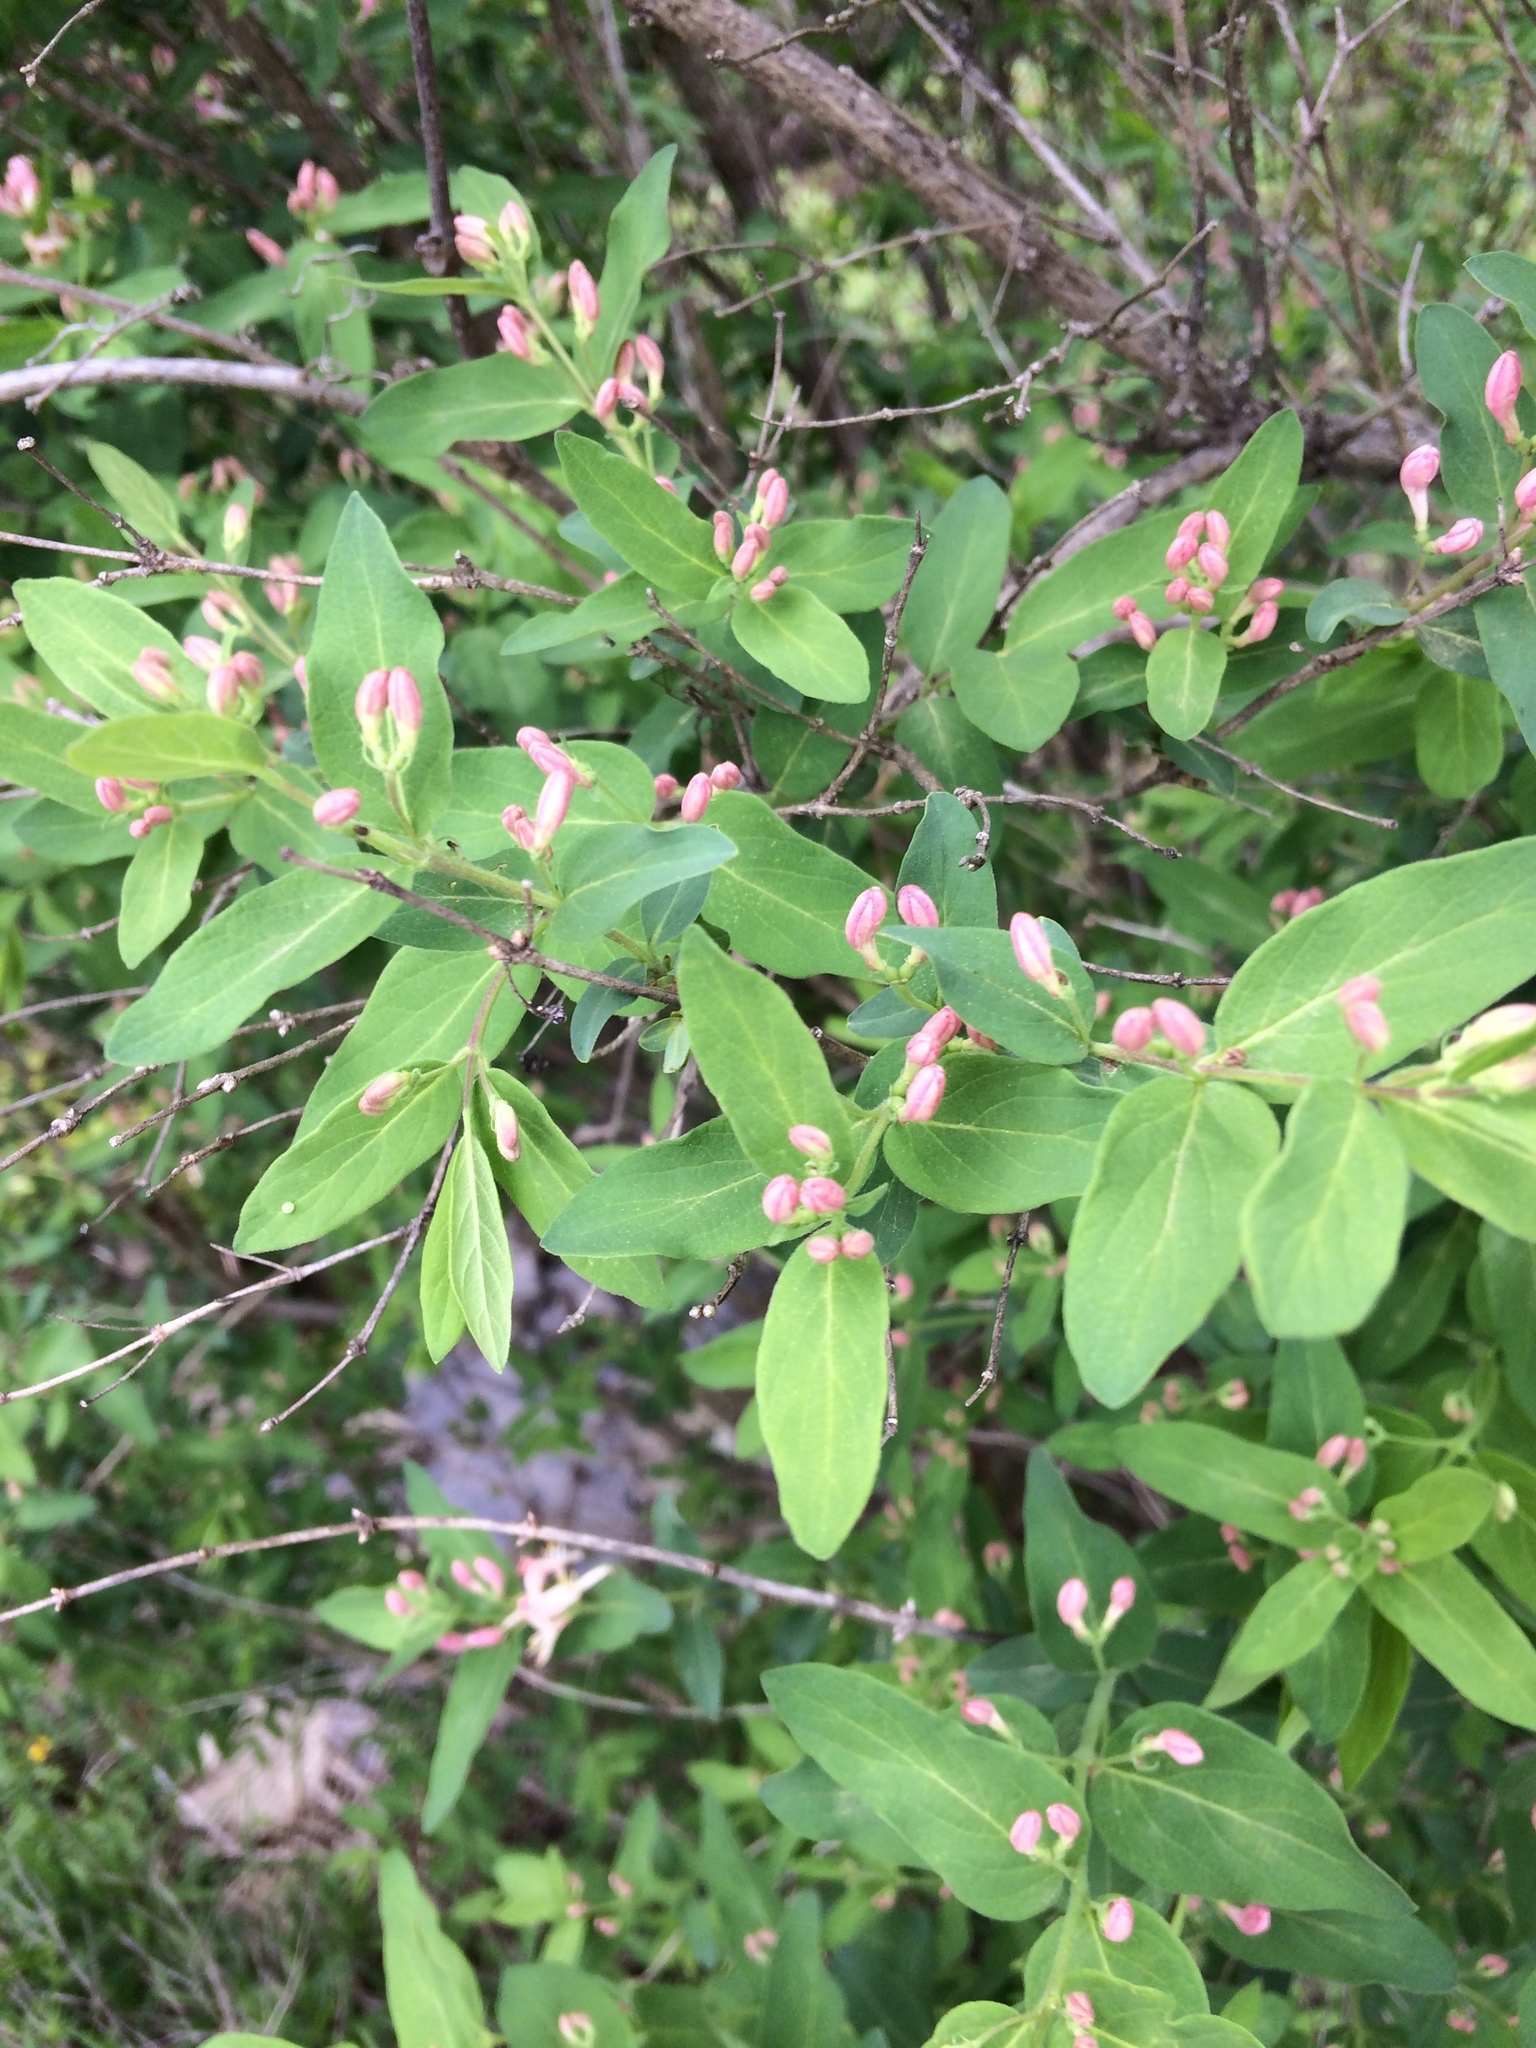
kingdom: Plantae
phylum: Tracheophyta
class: Magnoliopsida
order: Dipsacales
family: Caprifoliaceae
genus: Lonicera
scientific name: Lonicera tatarica
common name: Tatarian honeysuckle
